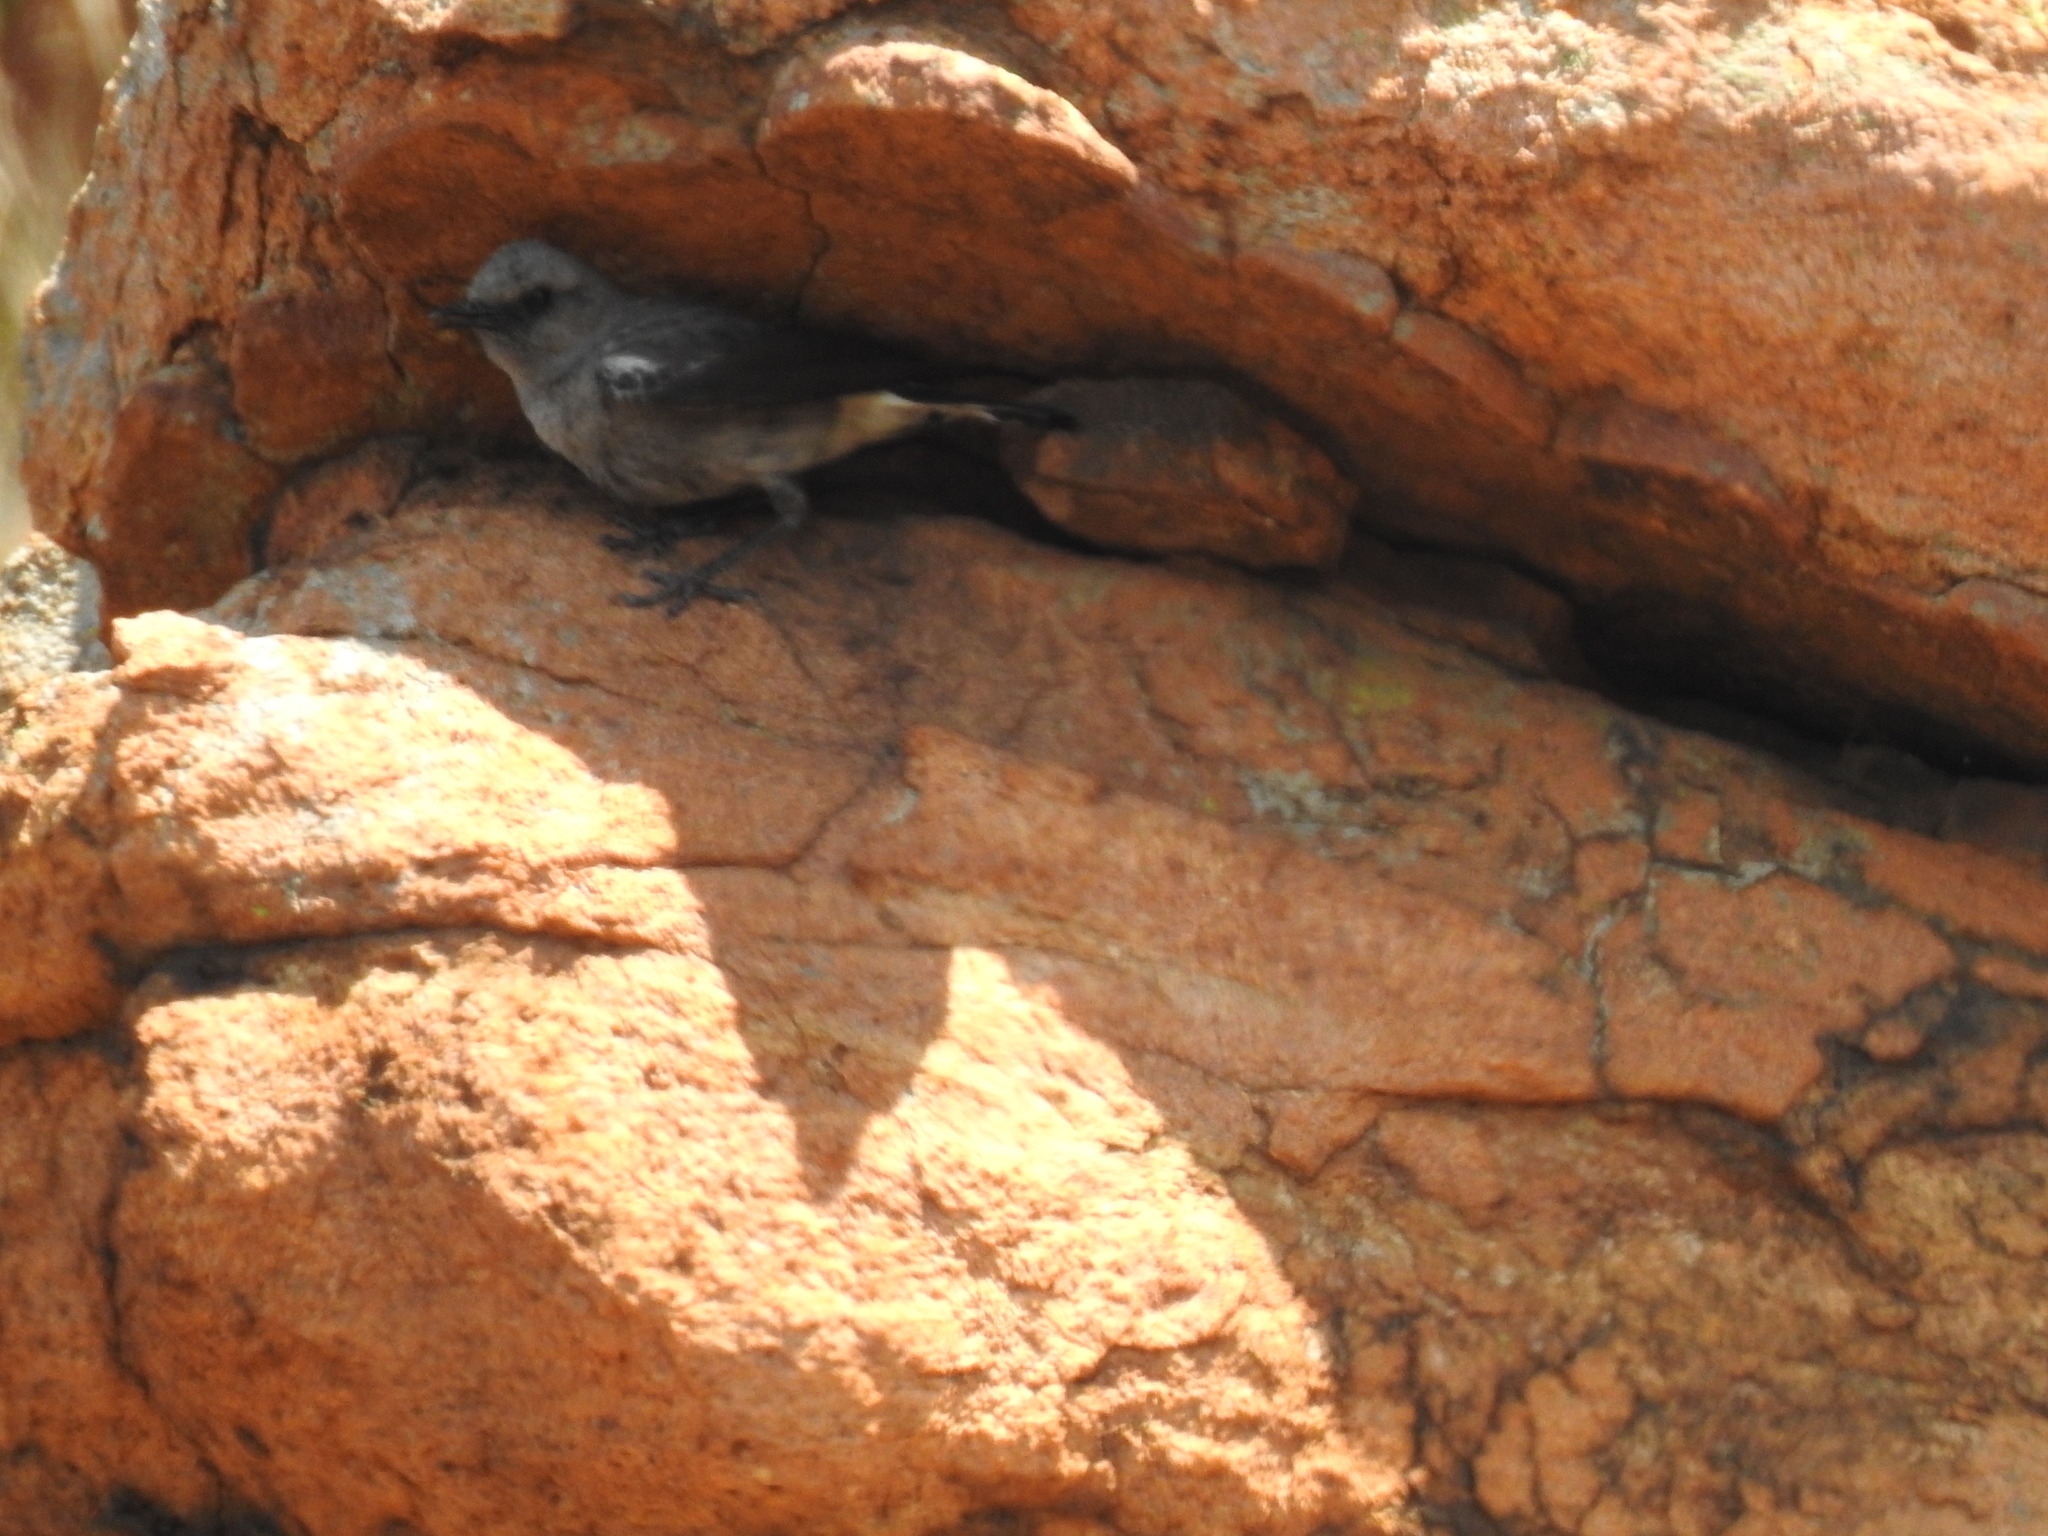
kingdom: Animalia
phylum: Chordata
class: Aves
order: Passeriformes
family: Muscicapidae
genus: Oenanthe
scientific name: Oenanthe monticola
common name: Mountain wheatear
